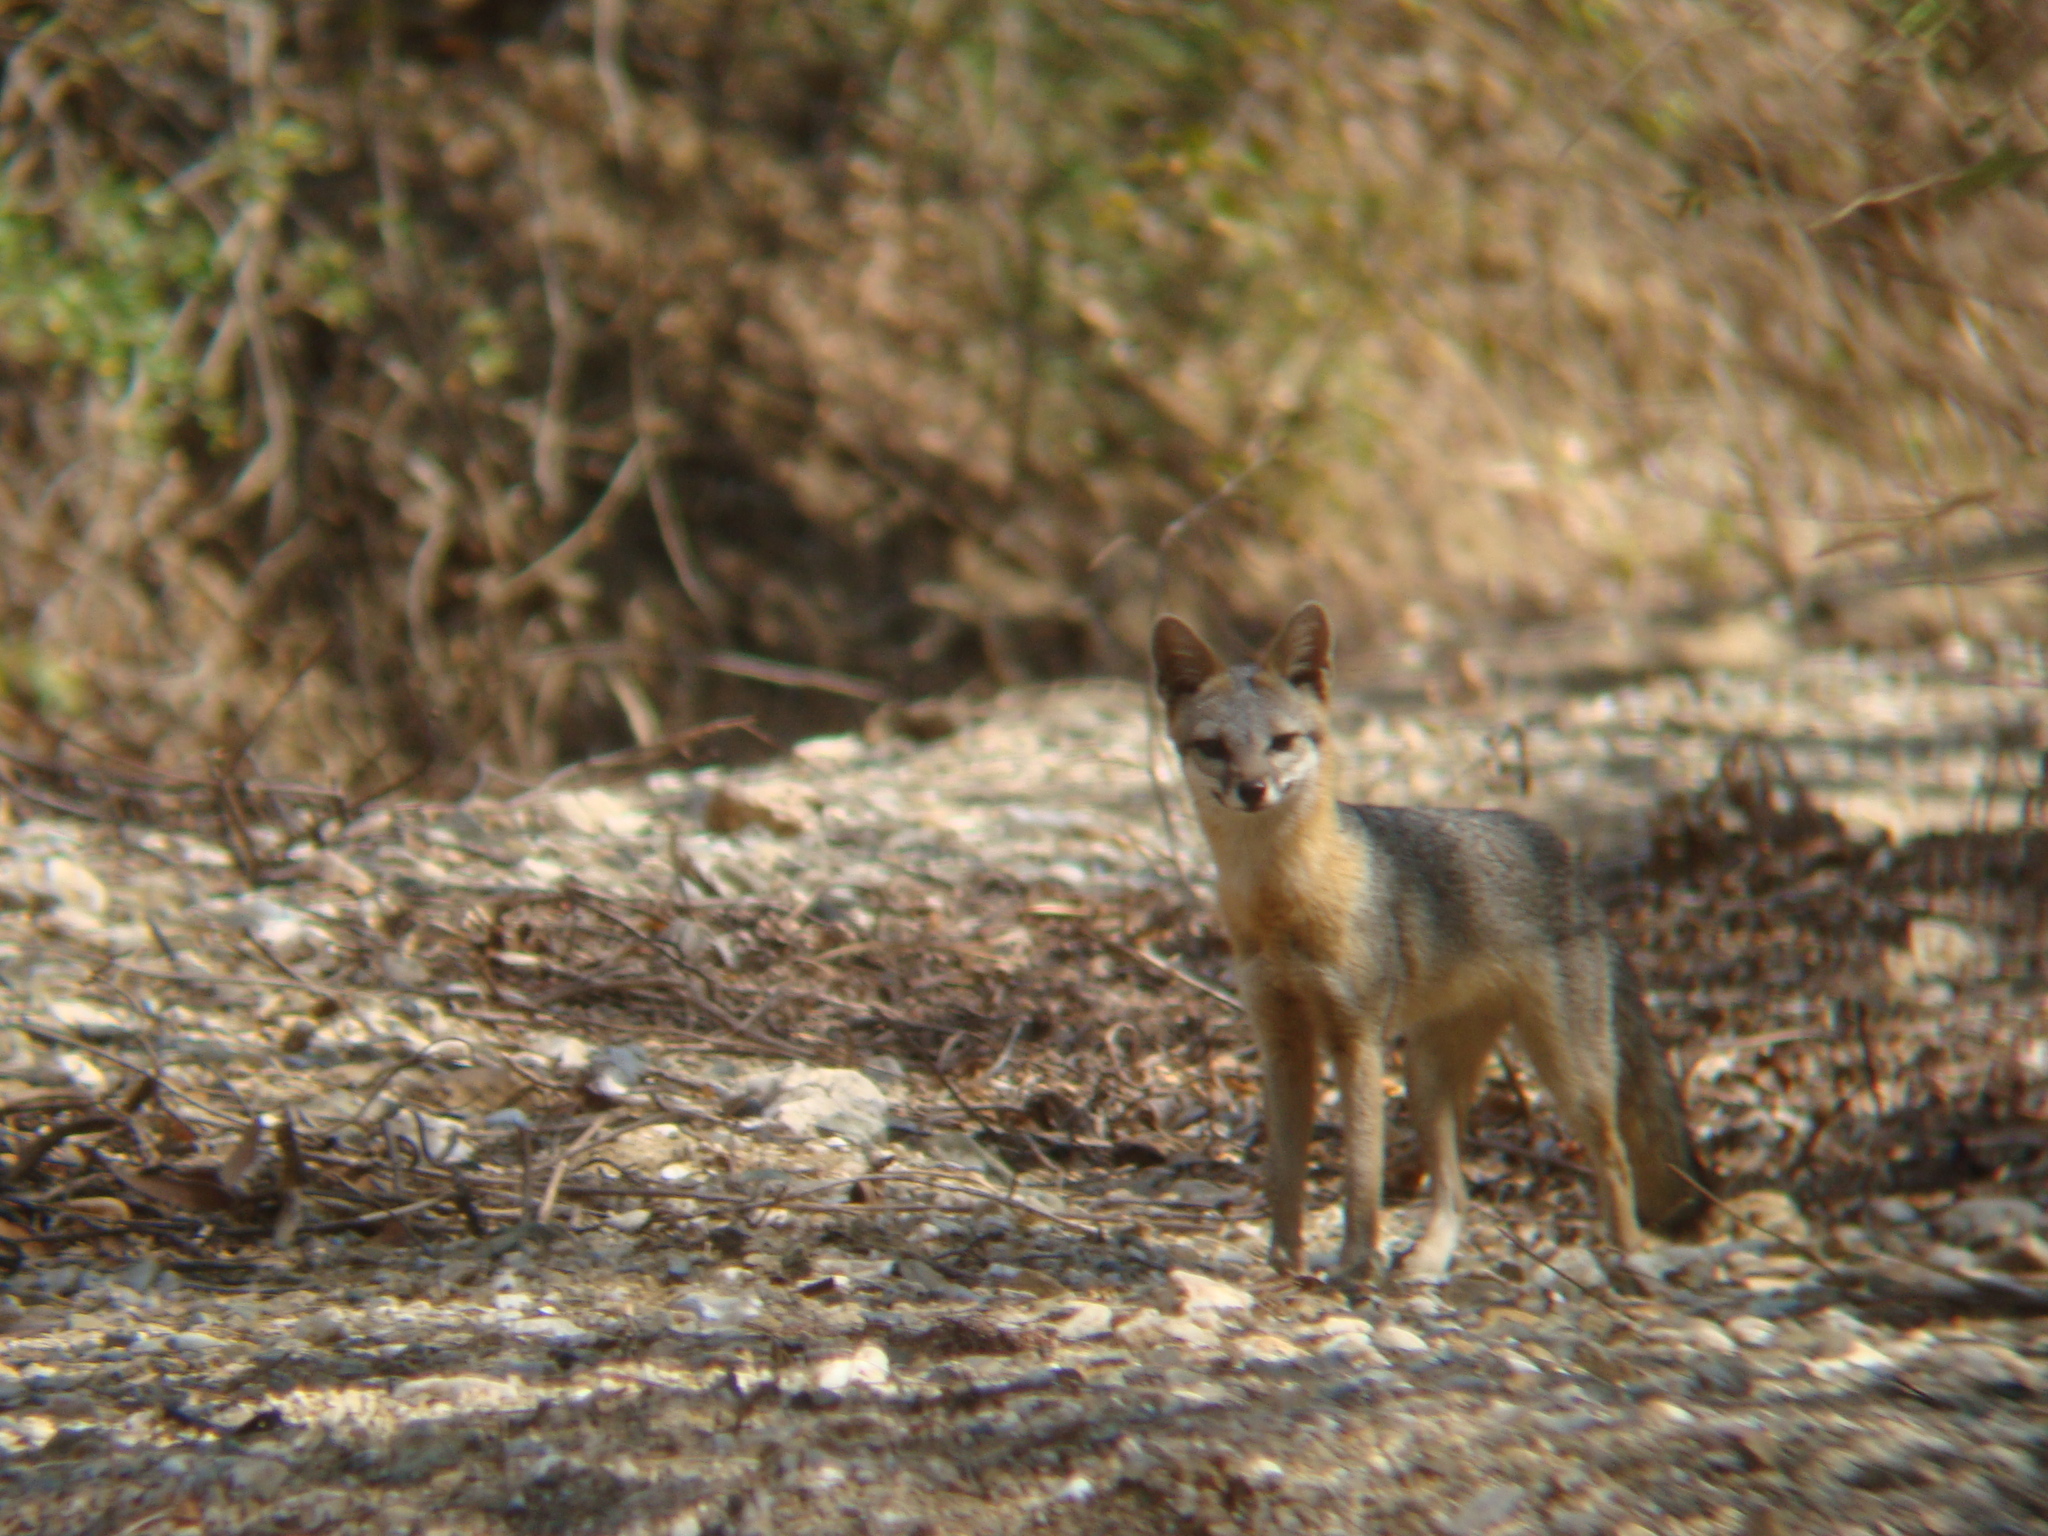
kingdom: Animalia
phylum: Chordata
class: Mammalia
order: Carnivora
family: Canidae
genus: Urocyon
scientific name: Urocyon cinereoargenteus
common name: Gray fox
